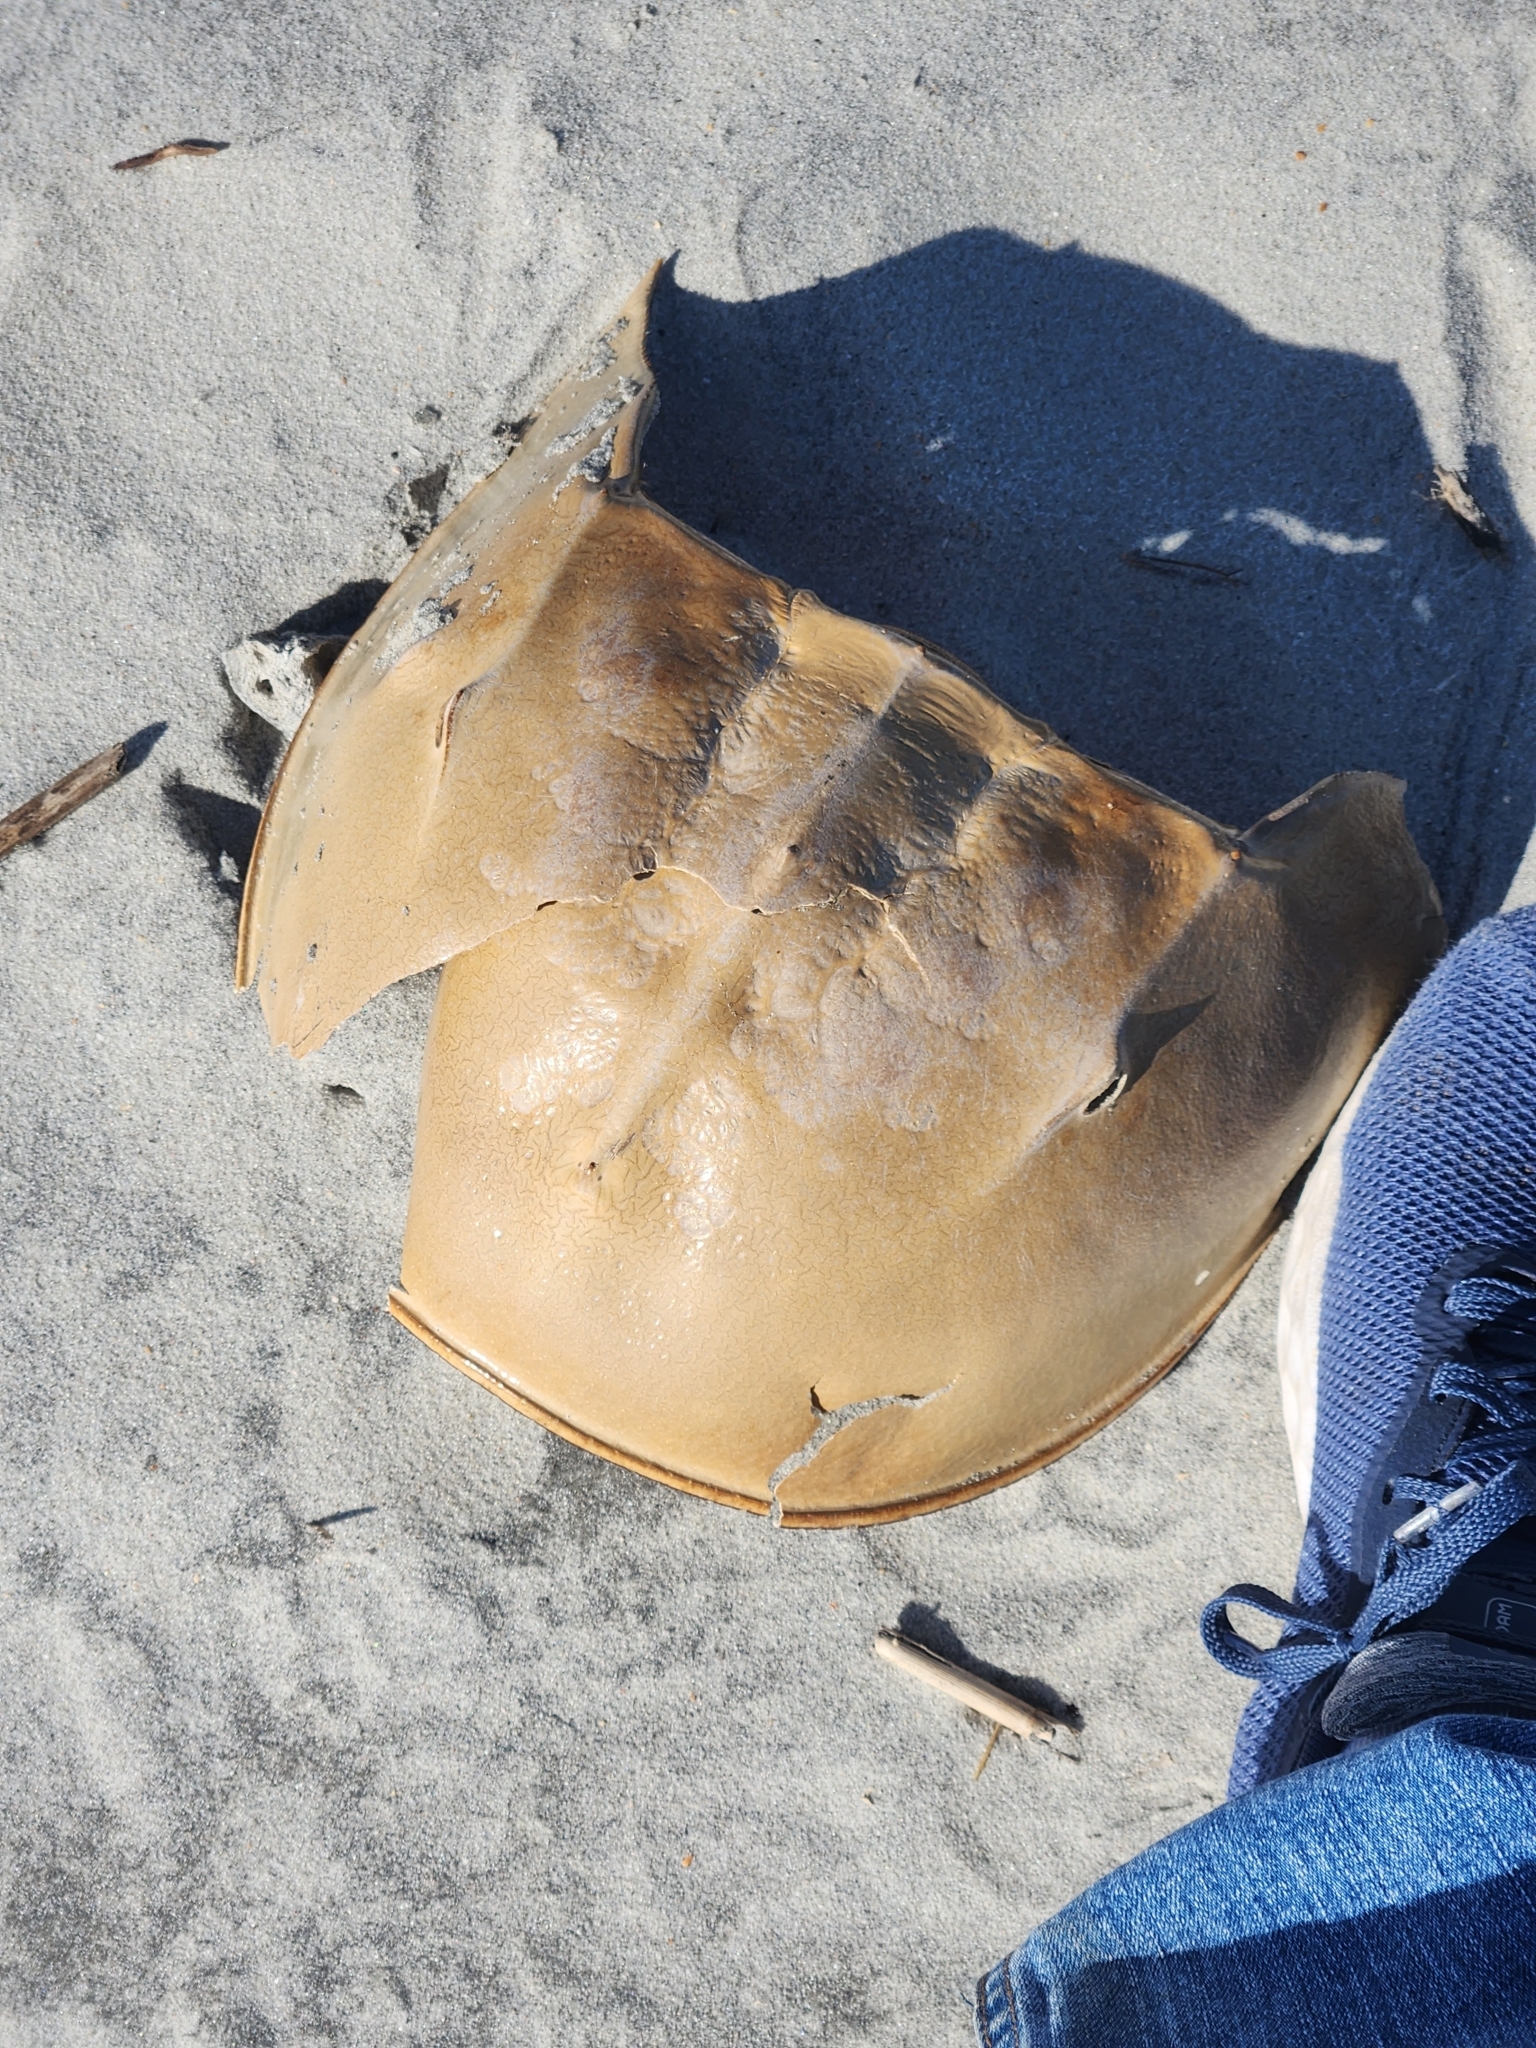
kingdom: Animalia
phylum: Arthropoda
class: Merostomata
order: Xiphosurida
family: Limulidae
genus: Limulus
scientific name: Limulus polyphemus
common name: Horseshoe crab
